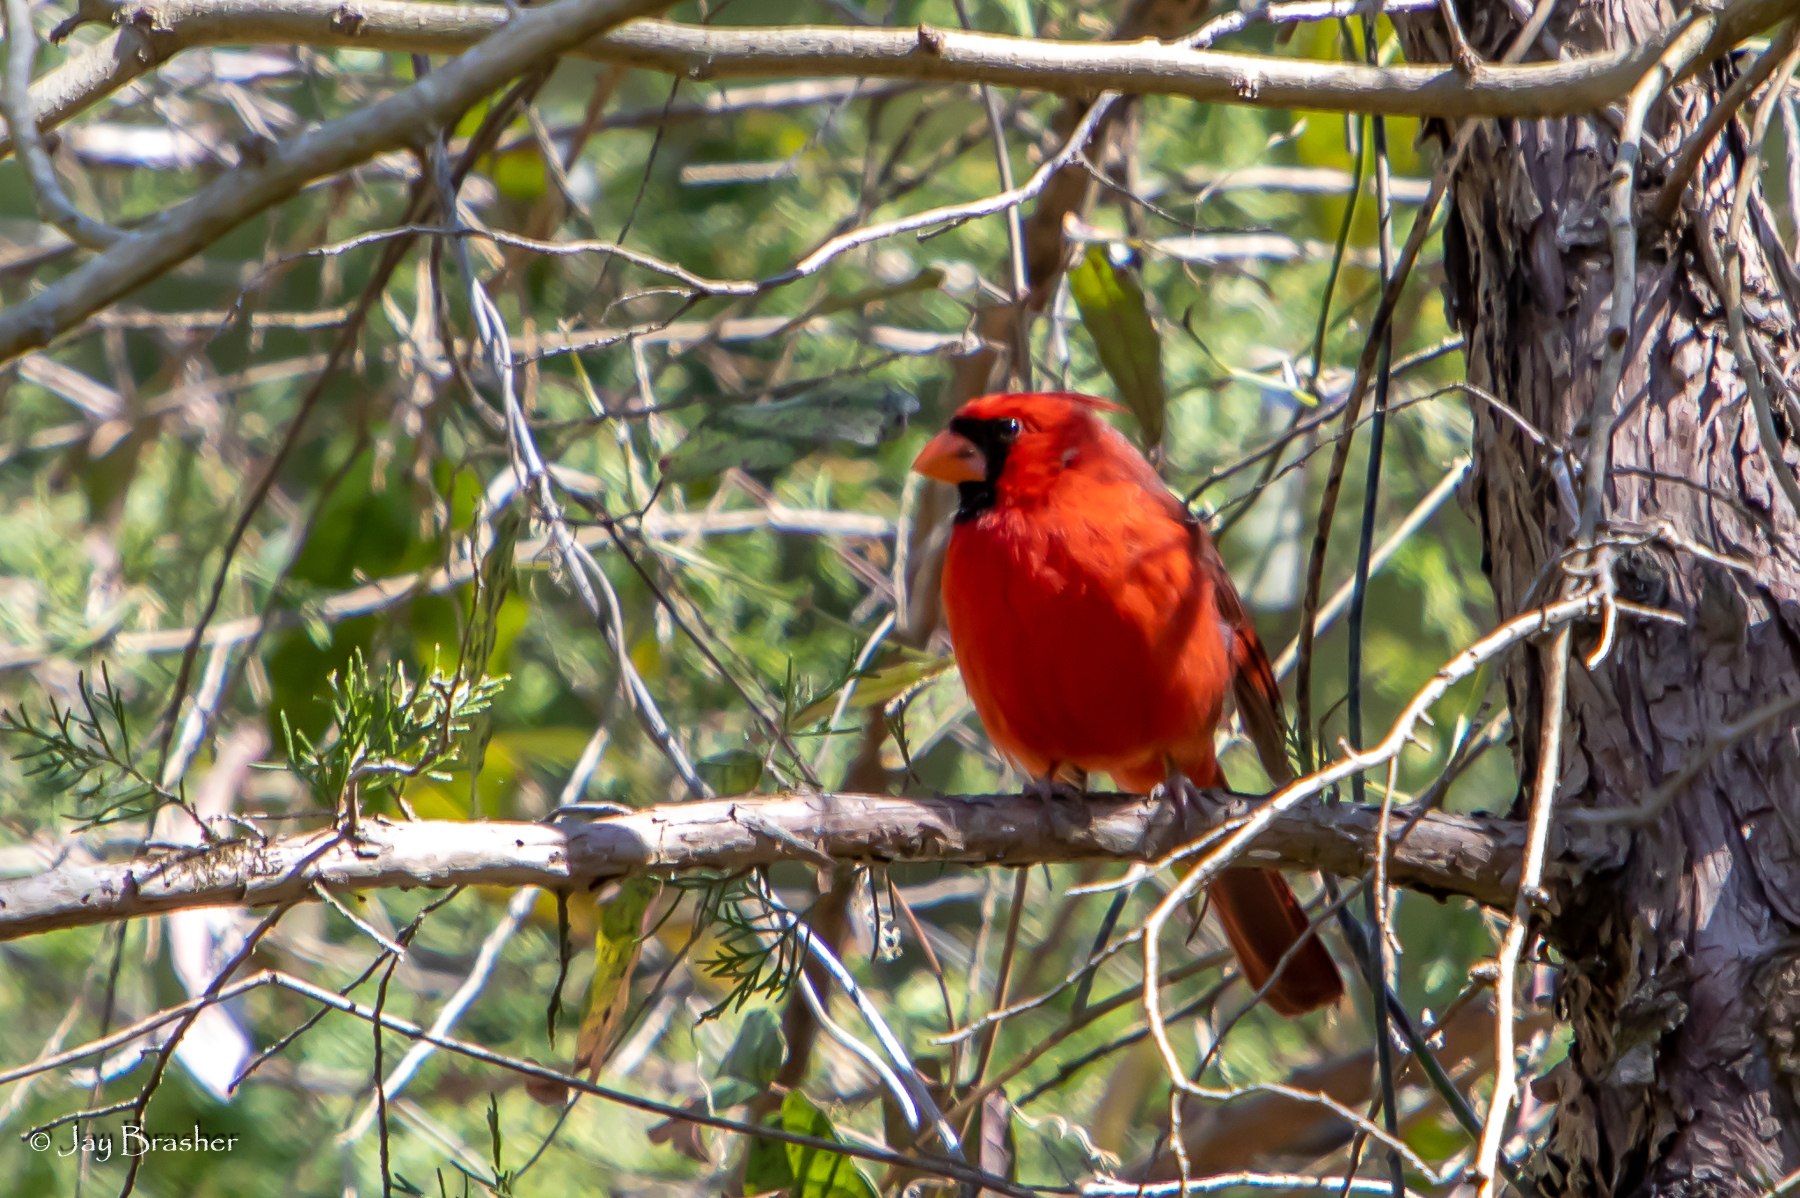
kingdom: Animalia
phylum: Chordata
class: Aves
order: Passeriformes
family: Cardinalidae
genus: Cardinalis
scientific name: Cardinalis cardinalis
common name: Northern cardinal
